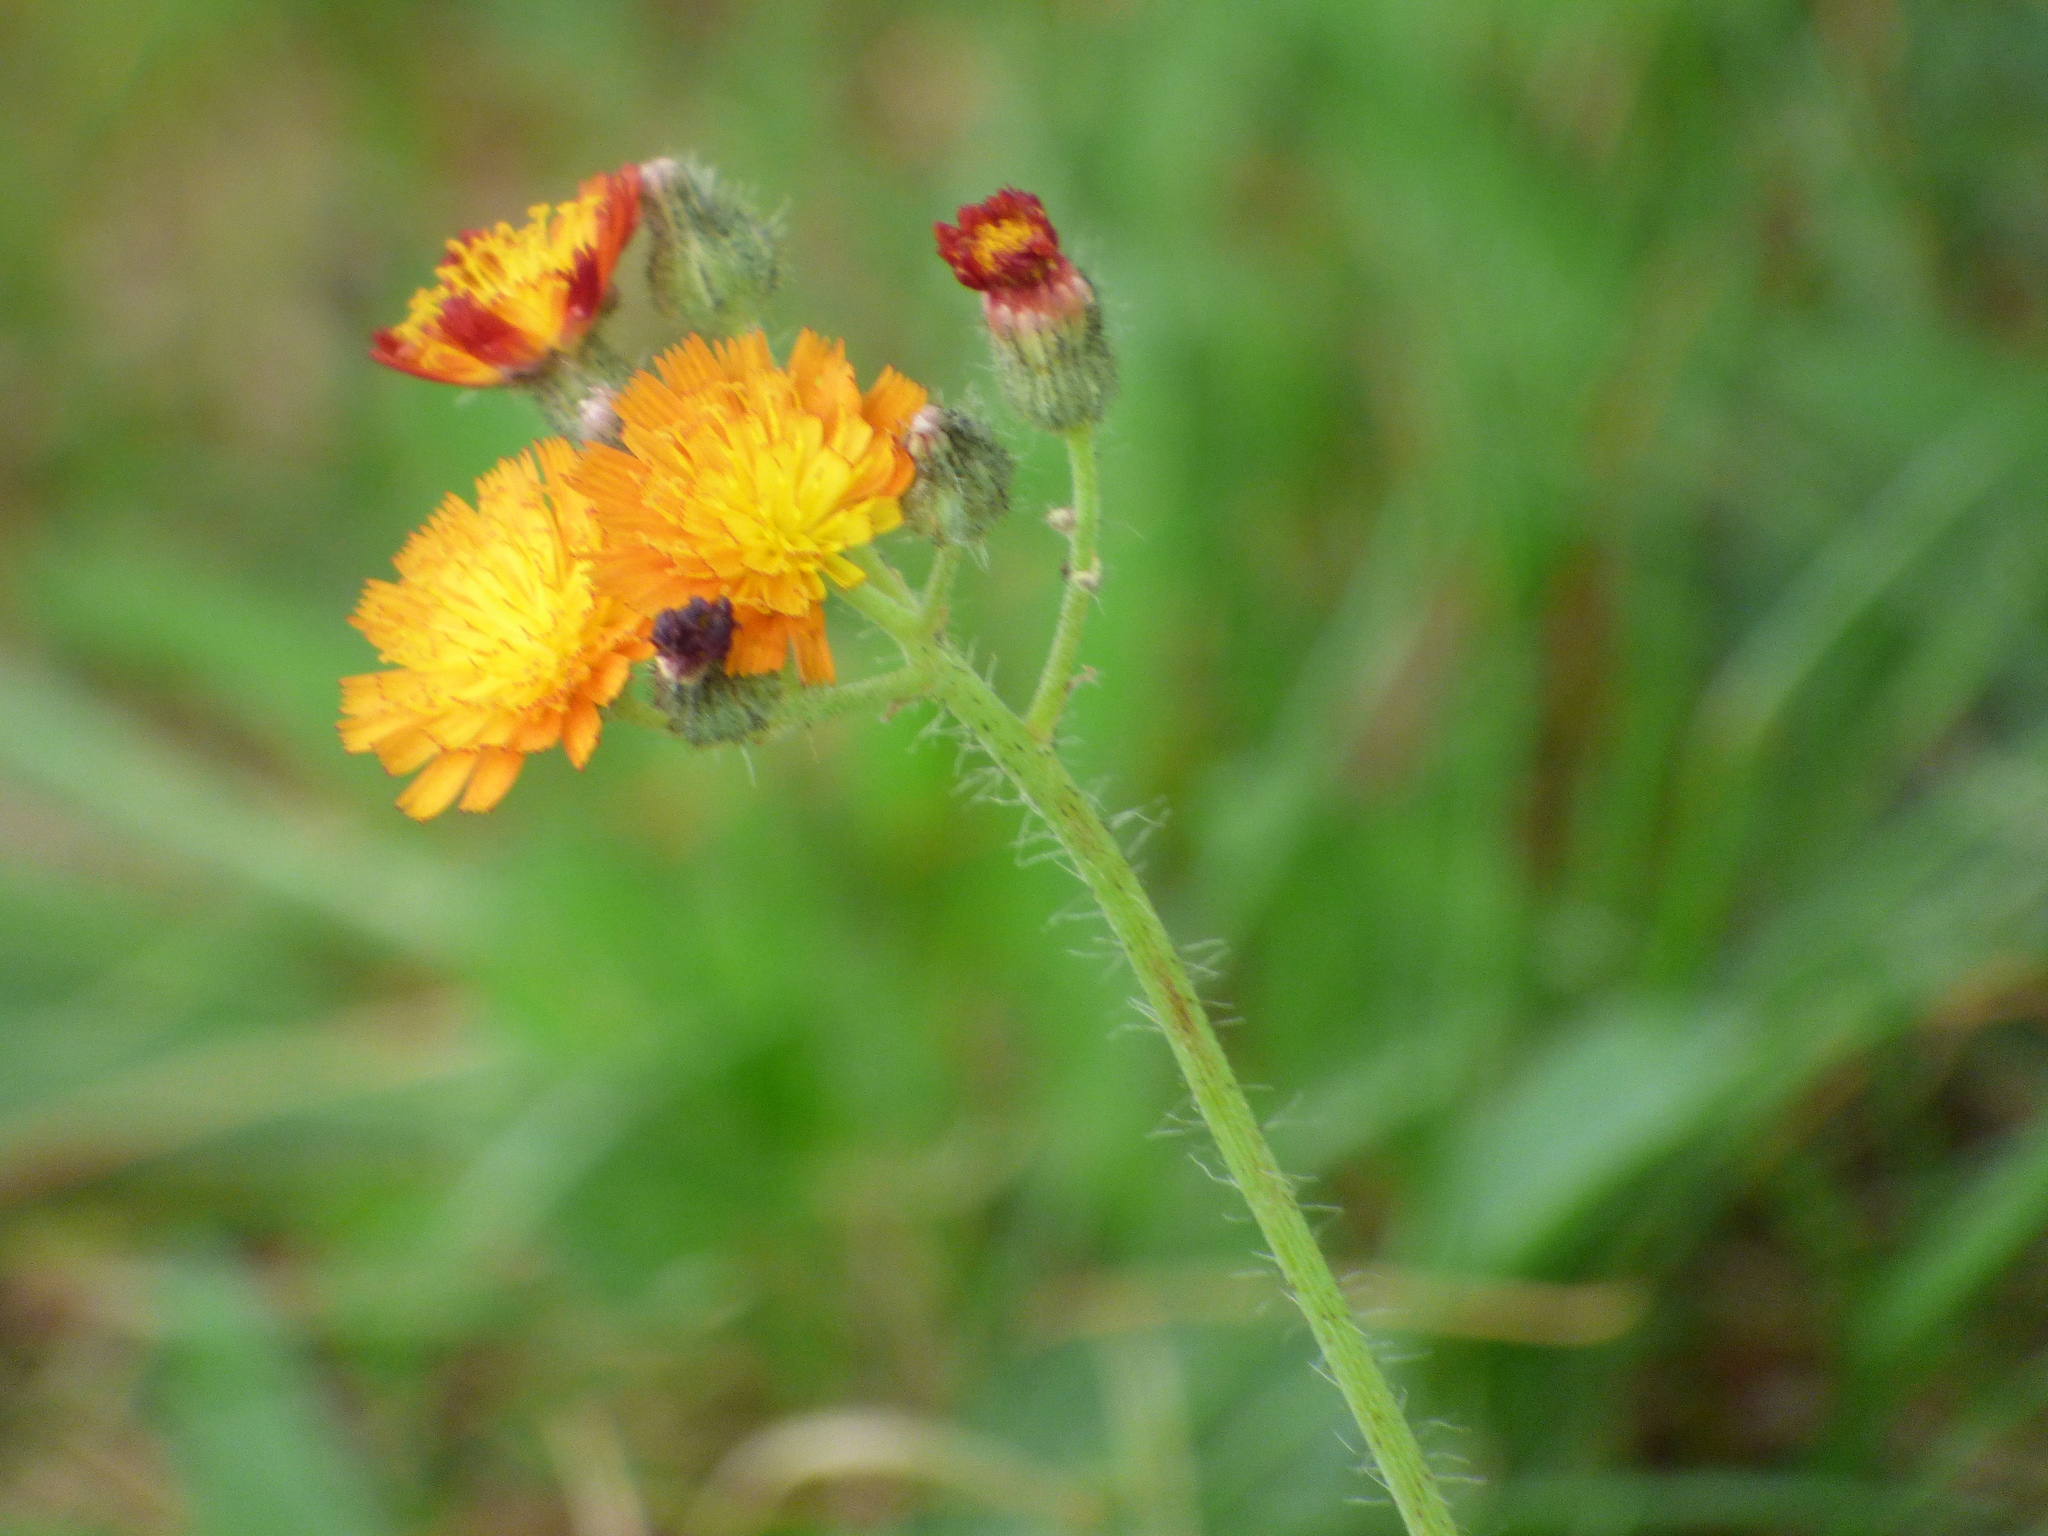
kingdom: Plantae
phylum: Tracheophyta
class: Magnoliopsida
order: Asterales
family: Asteraceae
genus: Pilosella
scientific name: Pilosella aurantiaca
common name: Fox-and-cubs
